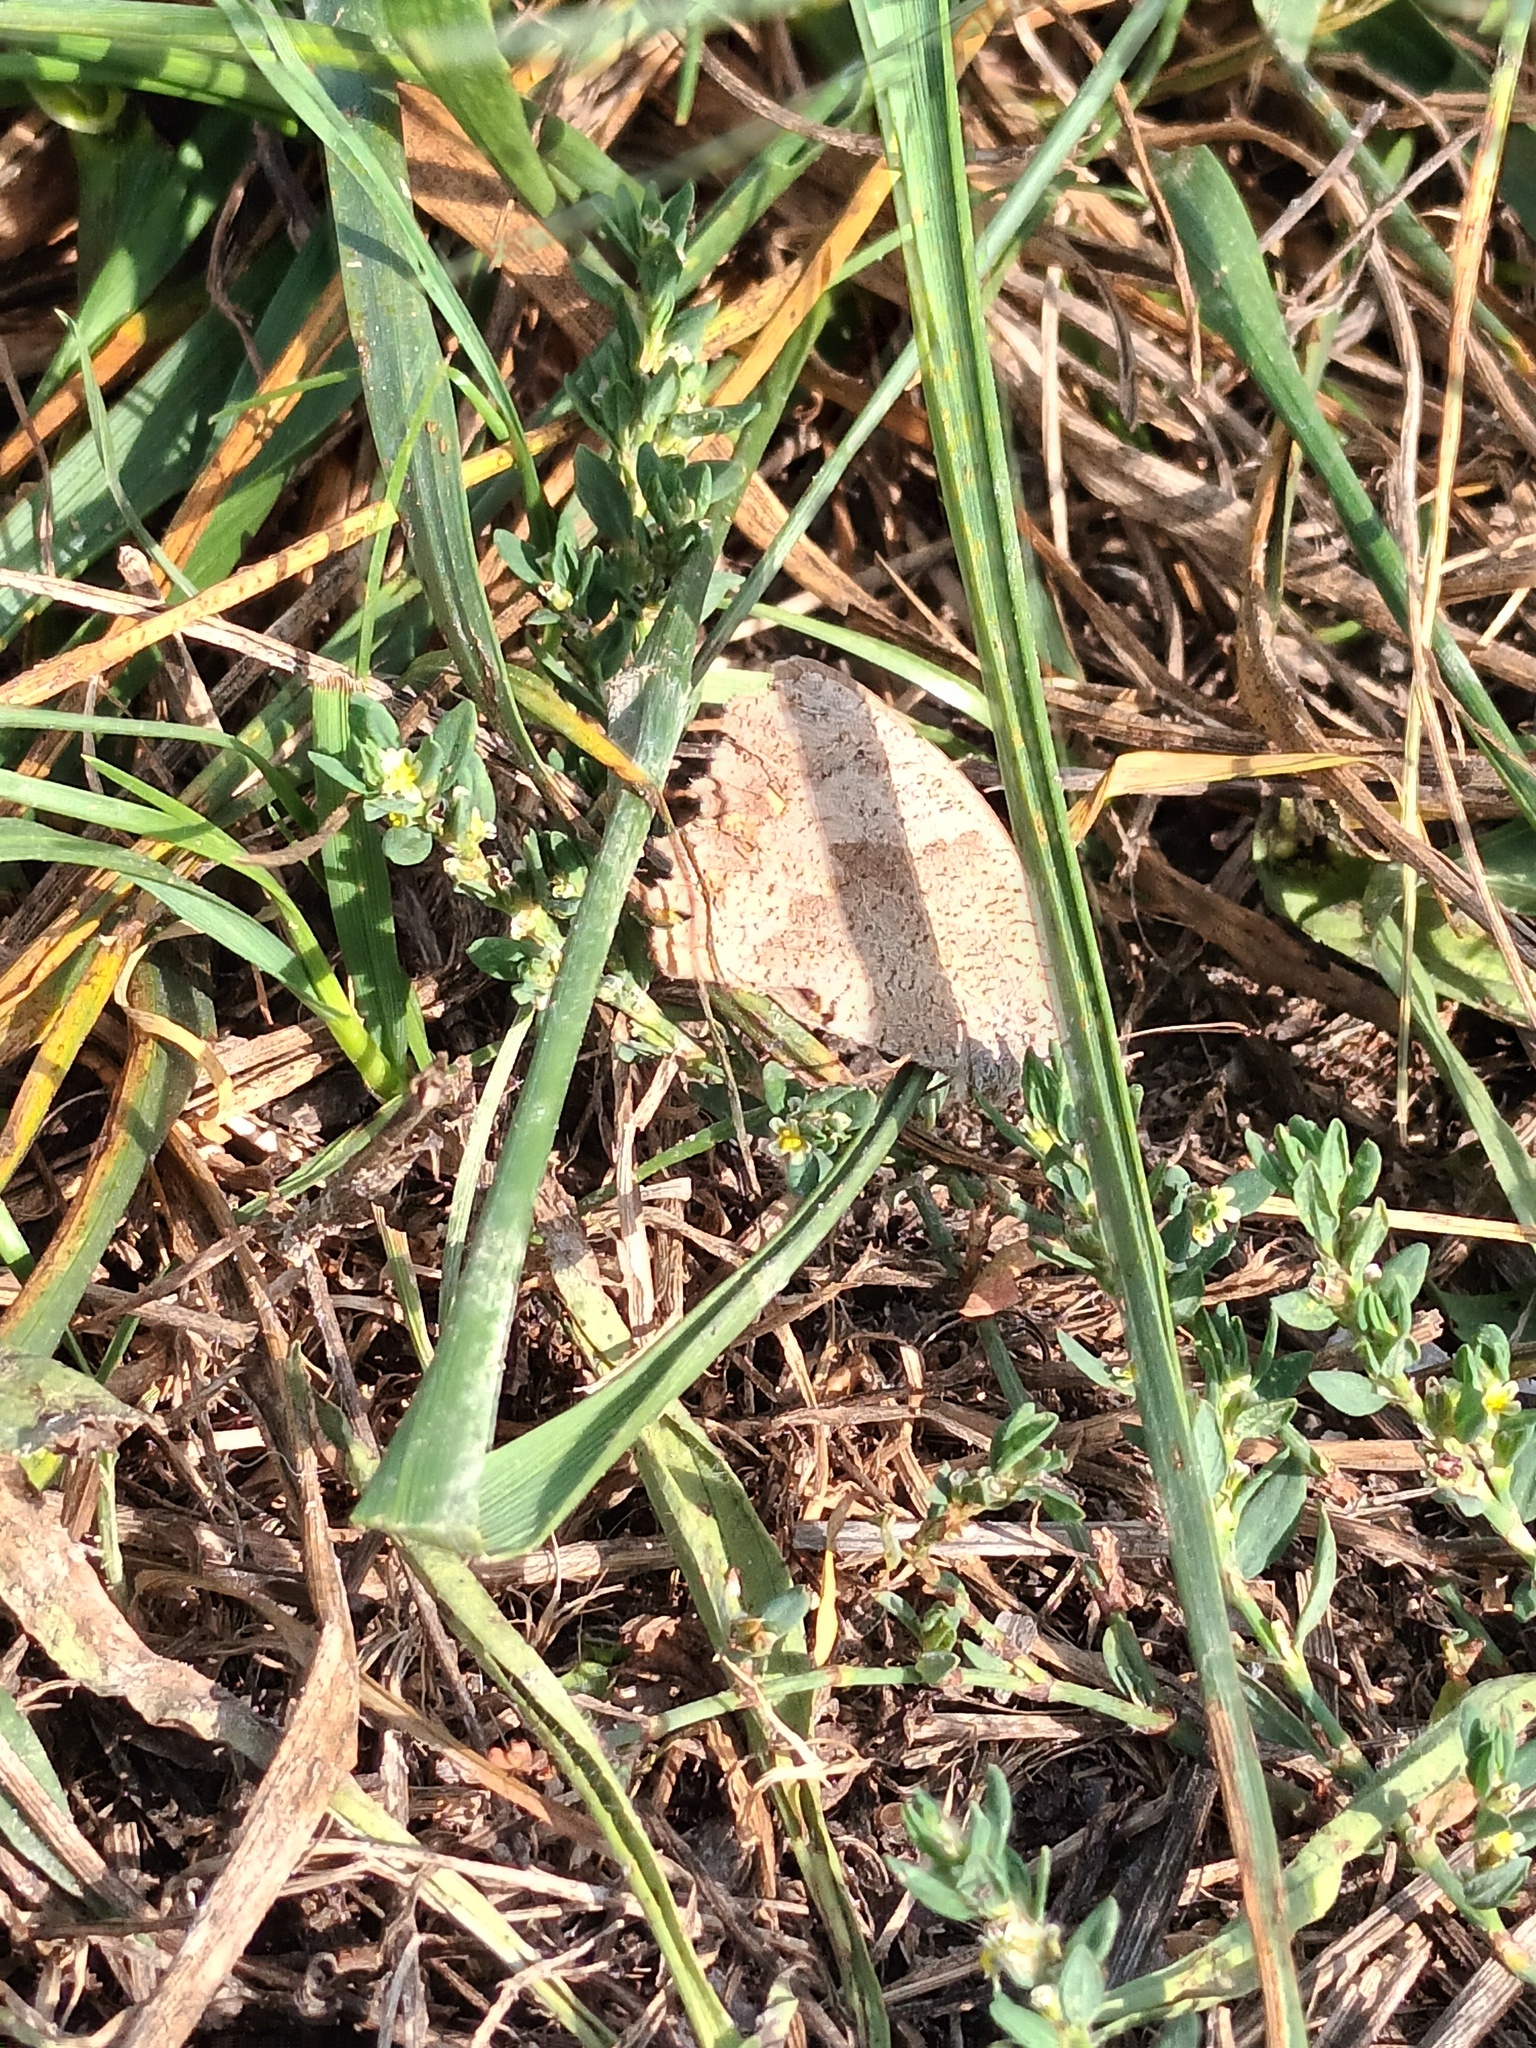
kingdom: Animalia
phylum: Arthropoda
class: Insecta
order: Lepidoptera
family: Nymphalidae
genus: Maniola
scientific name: Maniola jurtina
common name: Meadow brown
